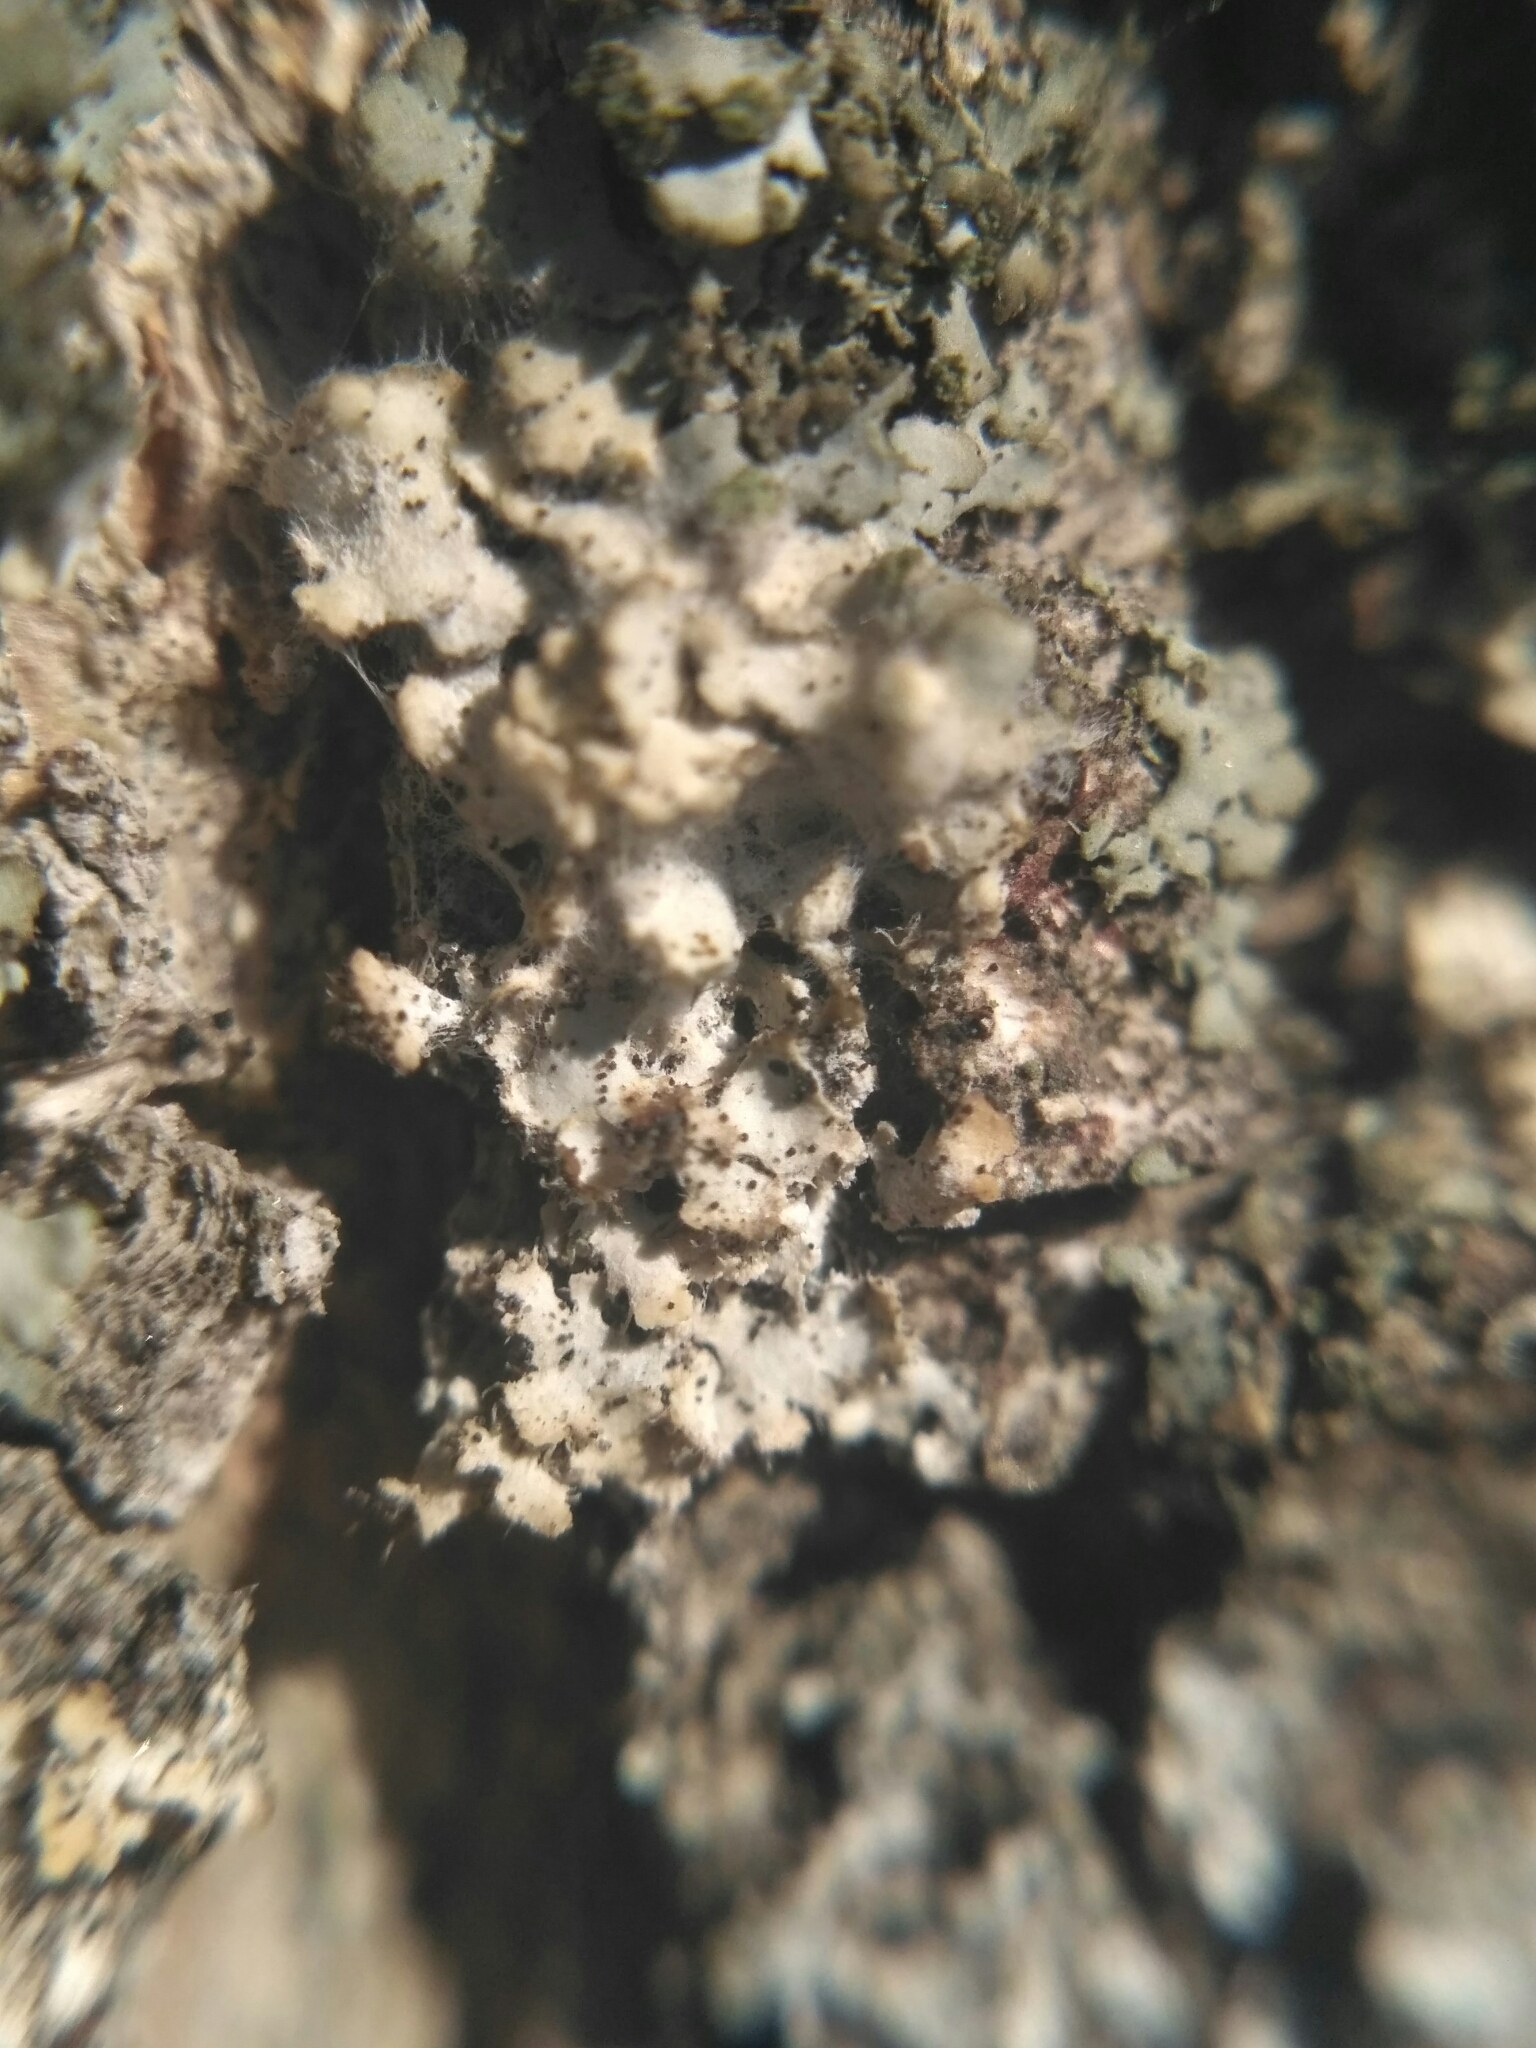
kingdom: Fungi
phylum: Basidiomycota
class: Agaricomycetes
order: Atheliales
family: Atheliaceae
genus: Athelia
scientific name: Athelia arachnoidea
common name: Candelabra duster
